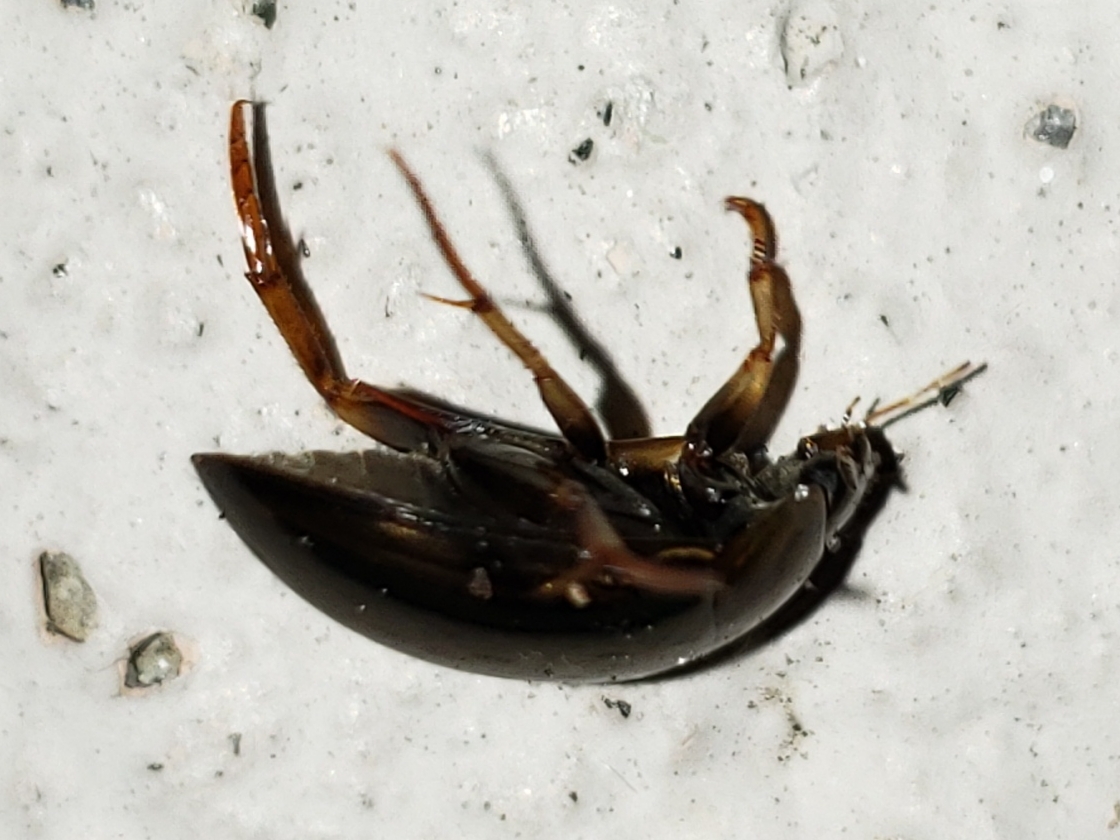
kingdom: Animalia
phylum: Arthropoda
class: Insecta
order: Coleoptera
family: Hydrophilidae
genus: Tropisternus
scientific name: Tropisternus collaris
